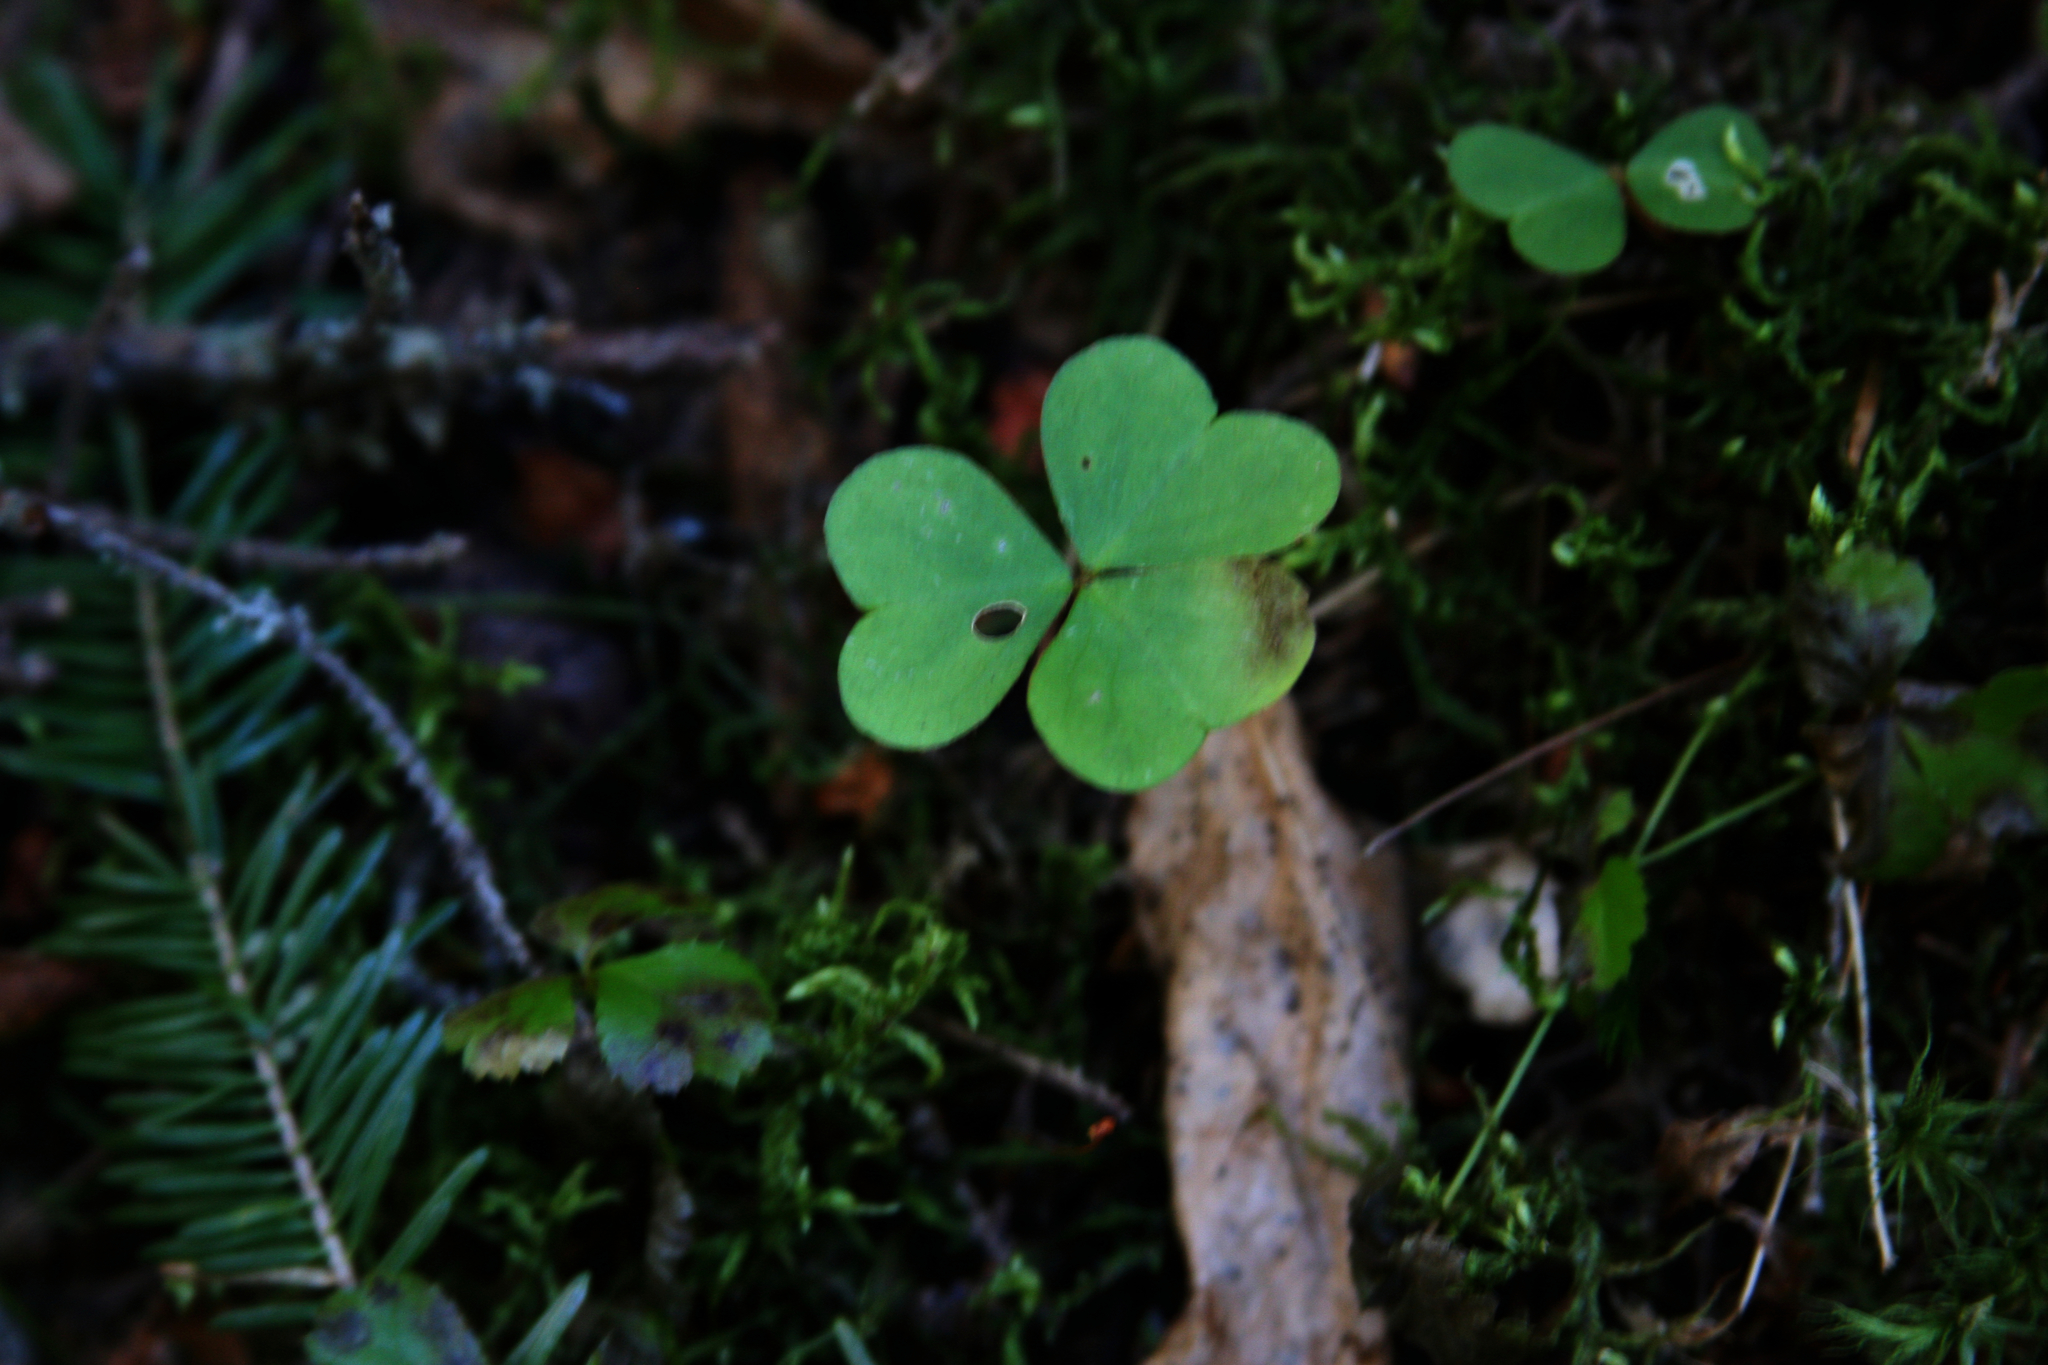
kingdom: Plantae
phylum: Tracheophyta
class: Magnoliopsida
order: Oxalidales
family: Oxalidaceae
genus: Oxalis
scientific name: Oxalis montana
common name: American wood-sorrel
